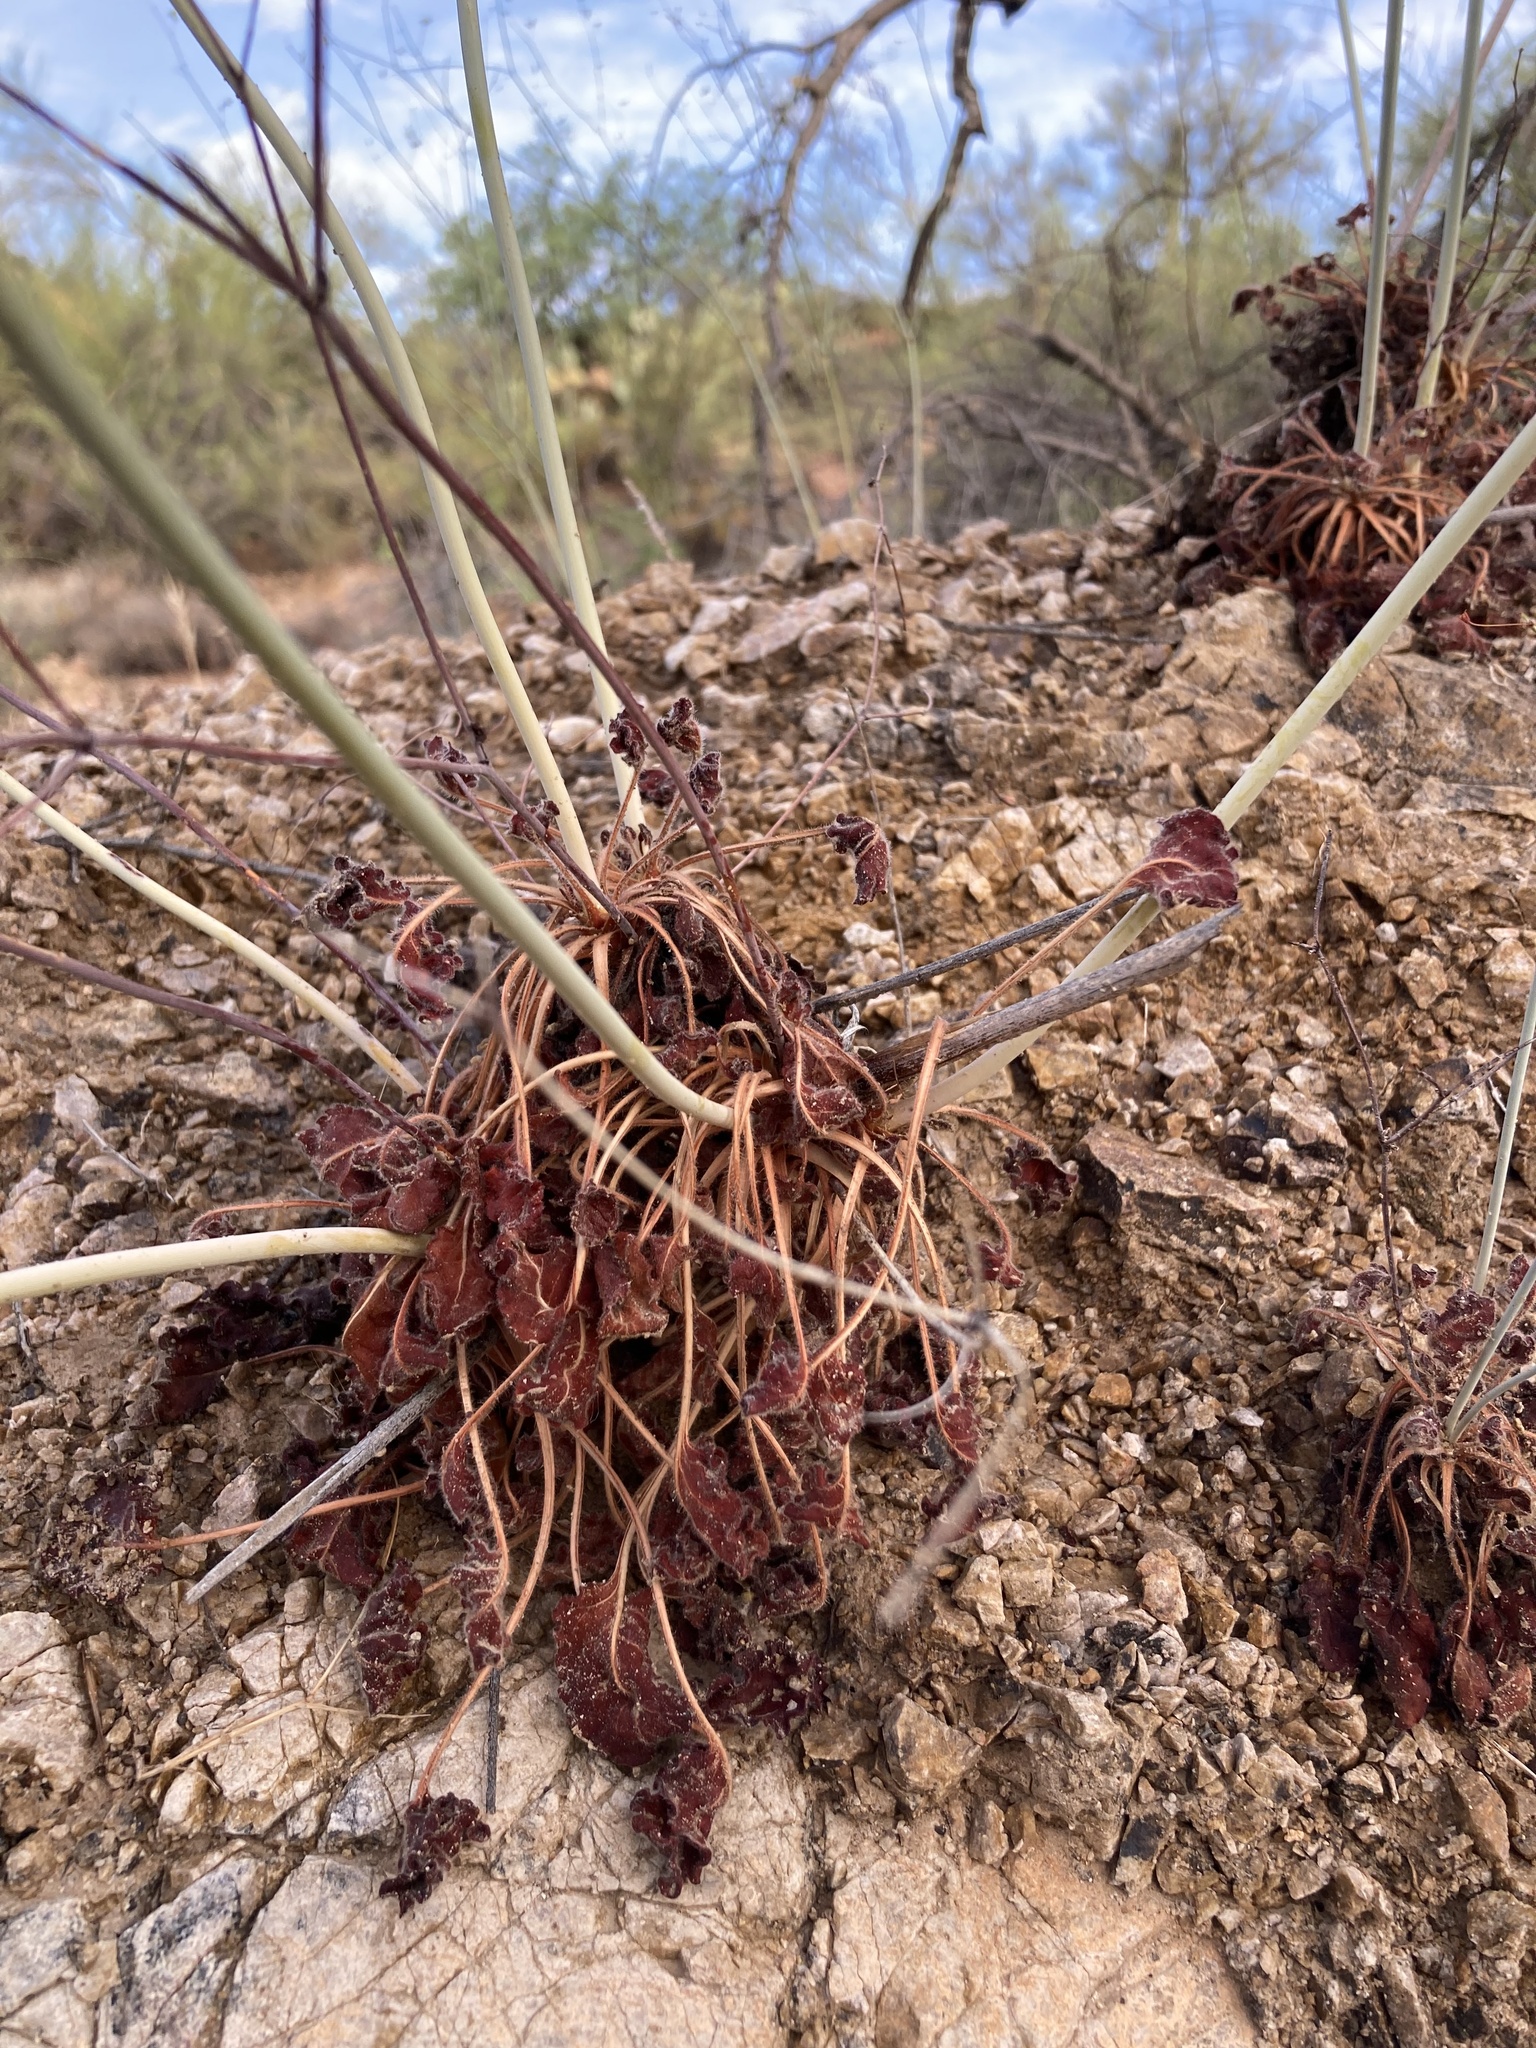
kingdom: Plantae
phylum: Tracheophyta
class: Magnoliopsida
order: Caryophyllales
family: Polygonaceae
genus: Eriogonum
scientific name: Eriogonum inflatum
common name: Desert trumpet
